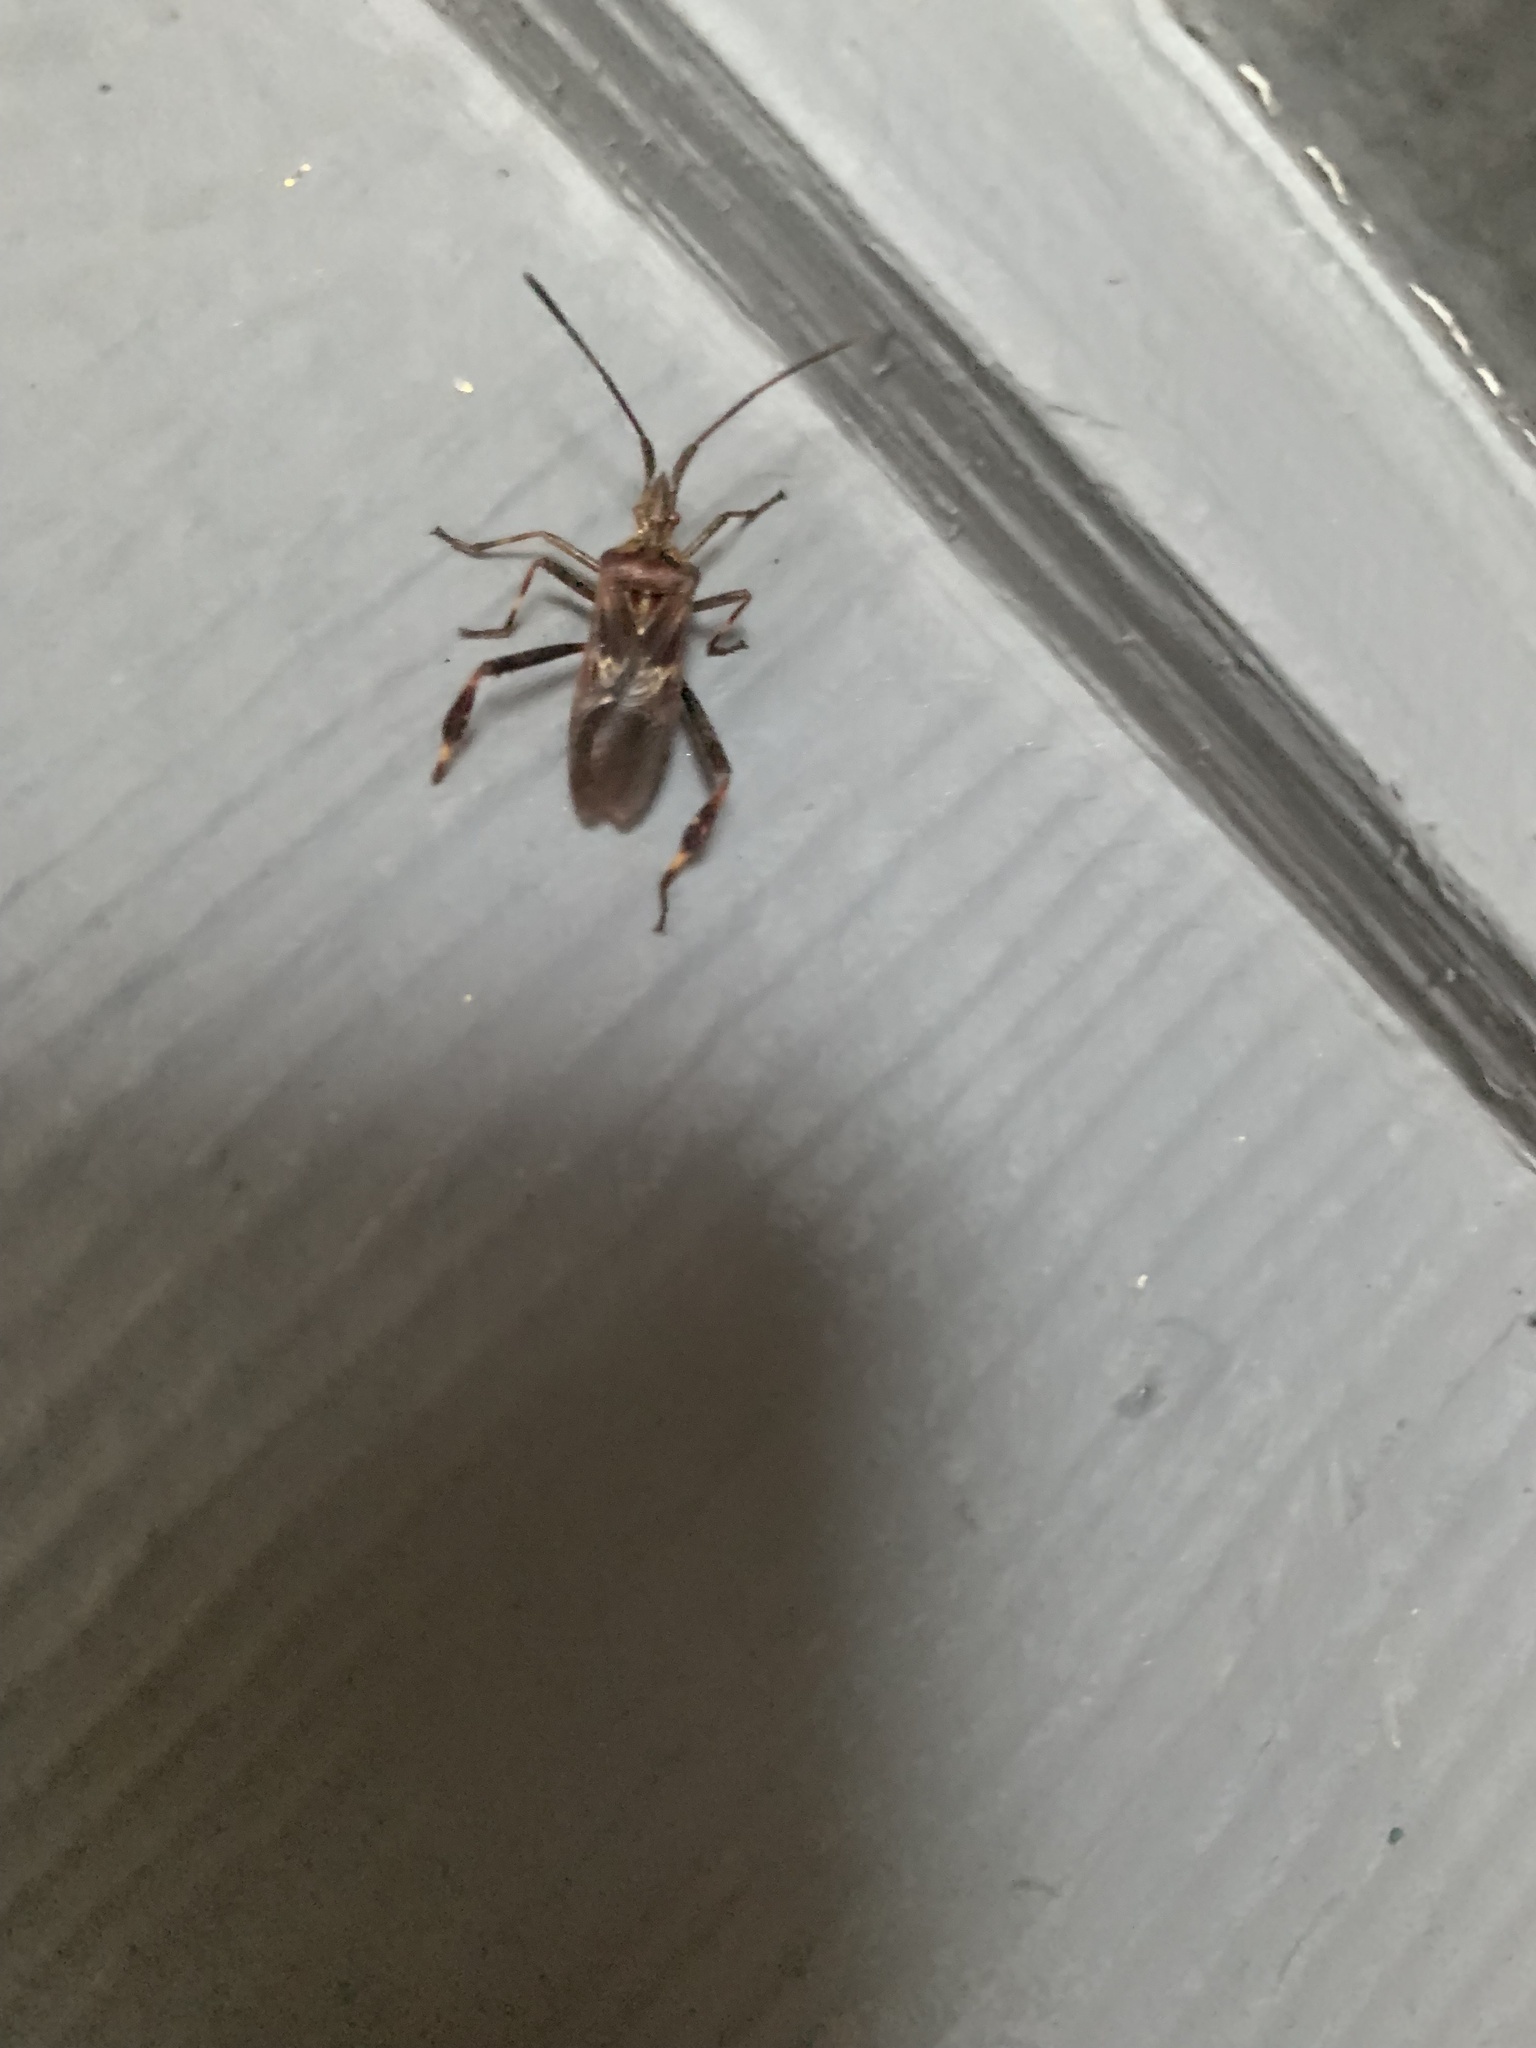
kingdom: Animalia
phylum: Arthropoda
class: Insecta
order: Hemiptera
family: Coreidae
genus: Leptoglossus
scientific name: Leptoglossus occidentalis
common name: Western conifer-seed bug
